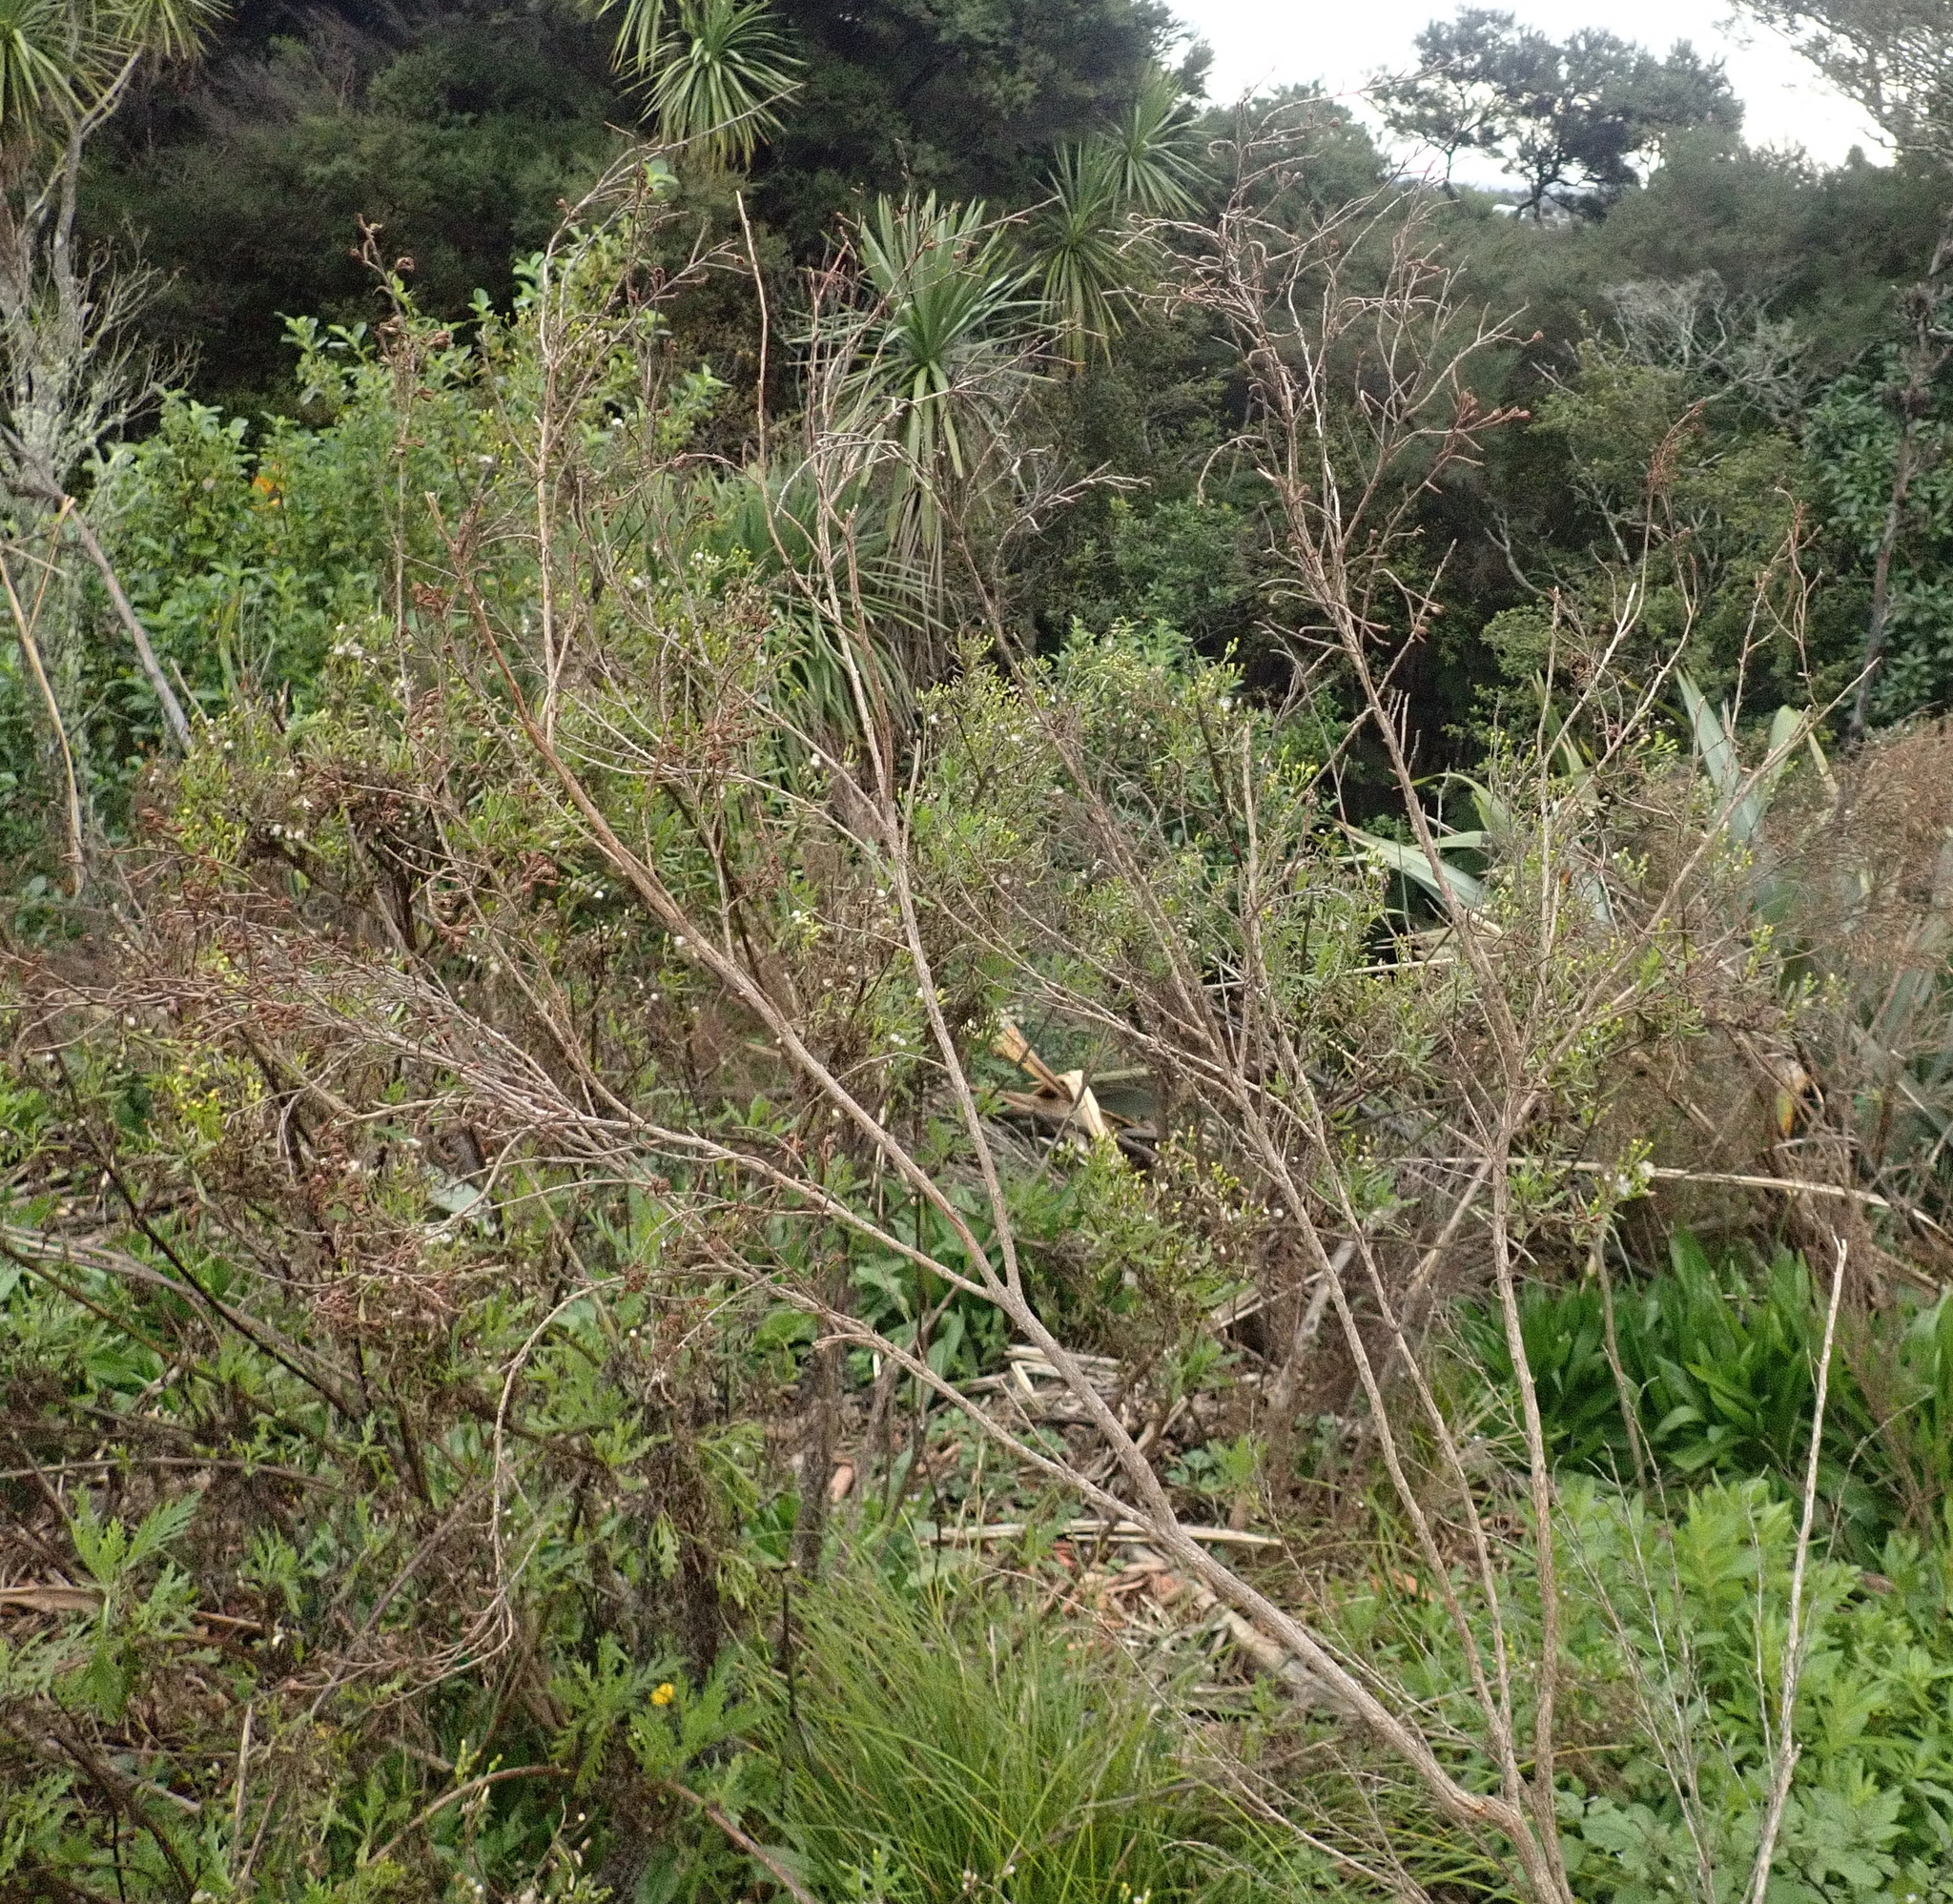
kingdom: Plantae
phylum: Tracheophyta
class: Magnoliopsida
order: Asterales
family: Asteraceae
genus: Senecio
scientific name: Senecio esleri
